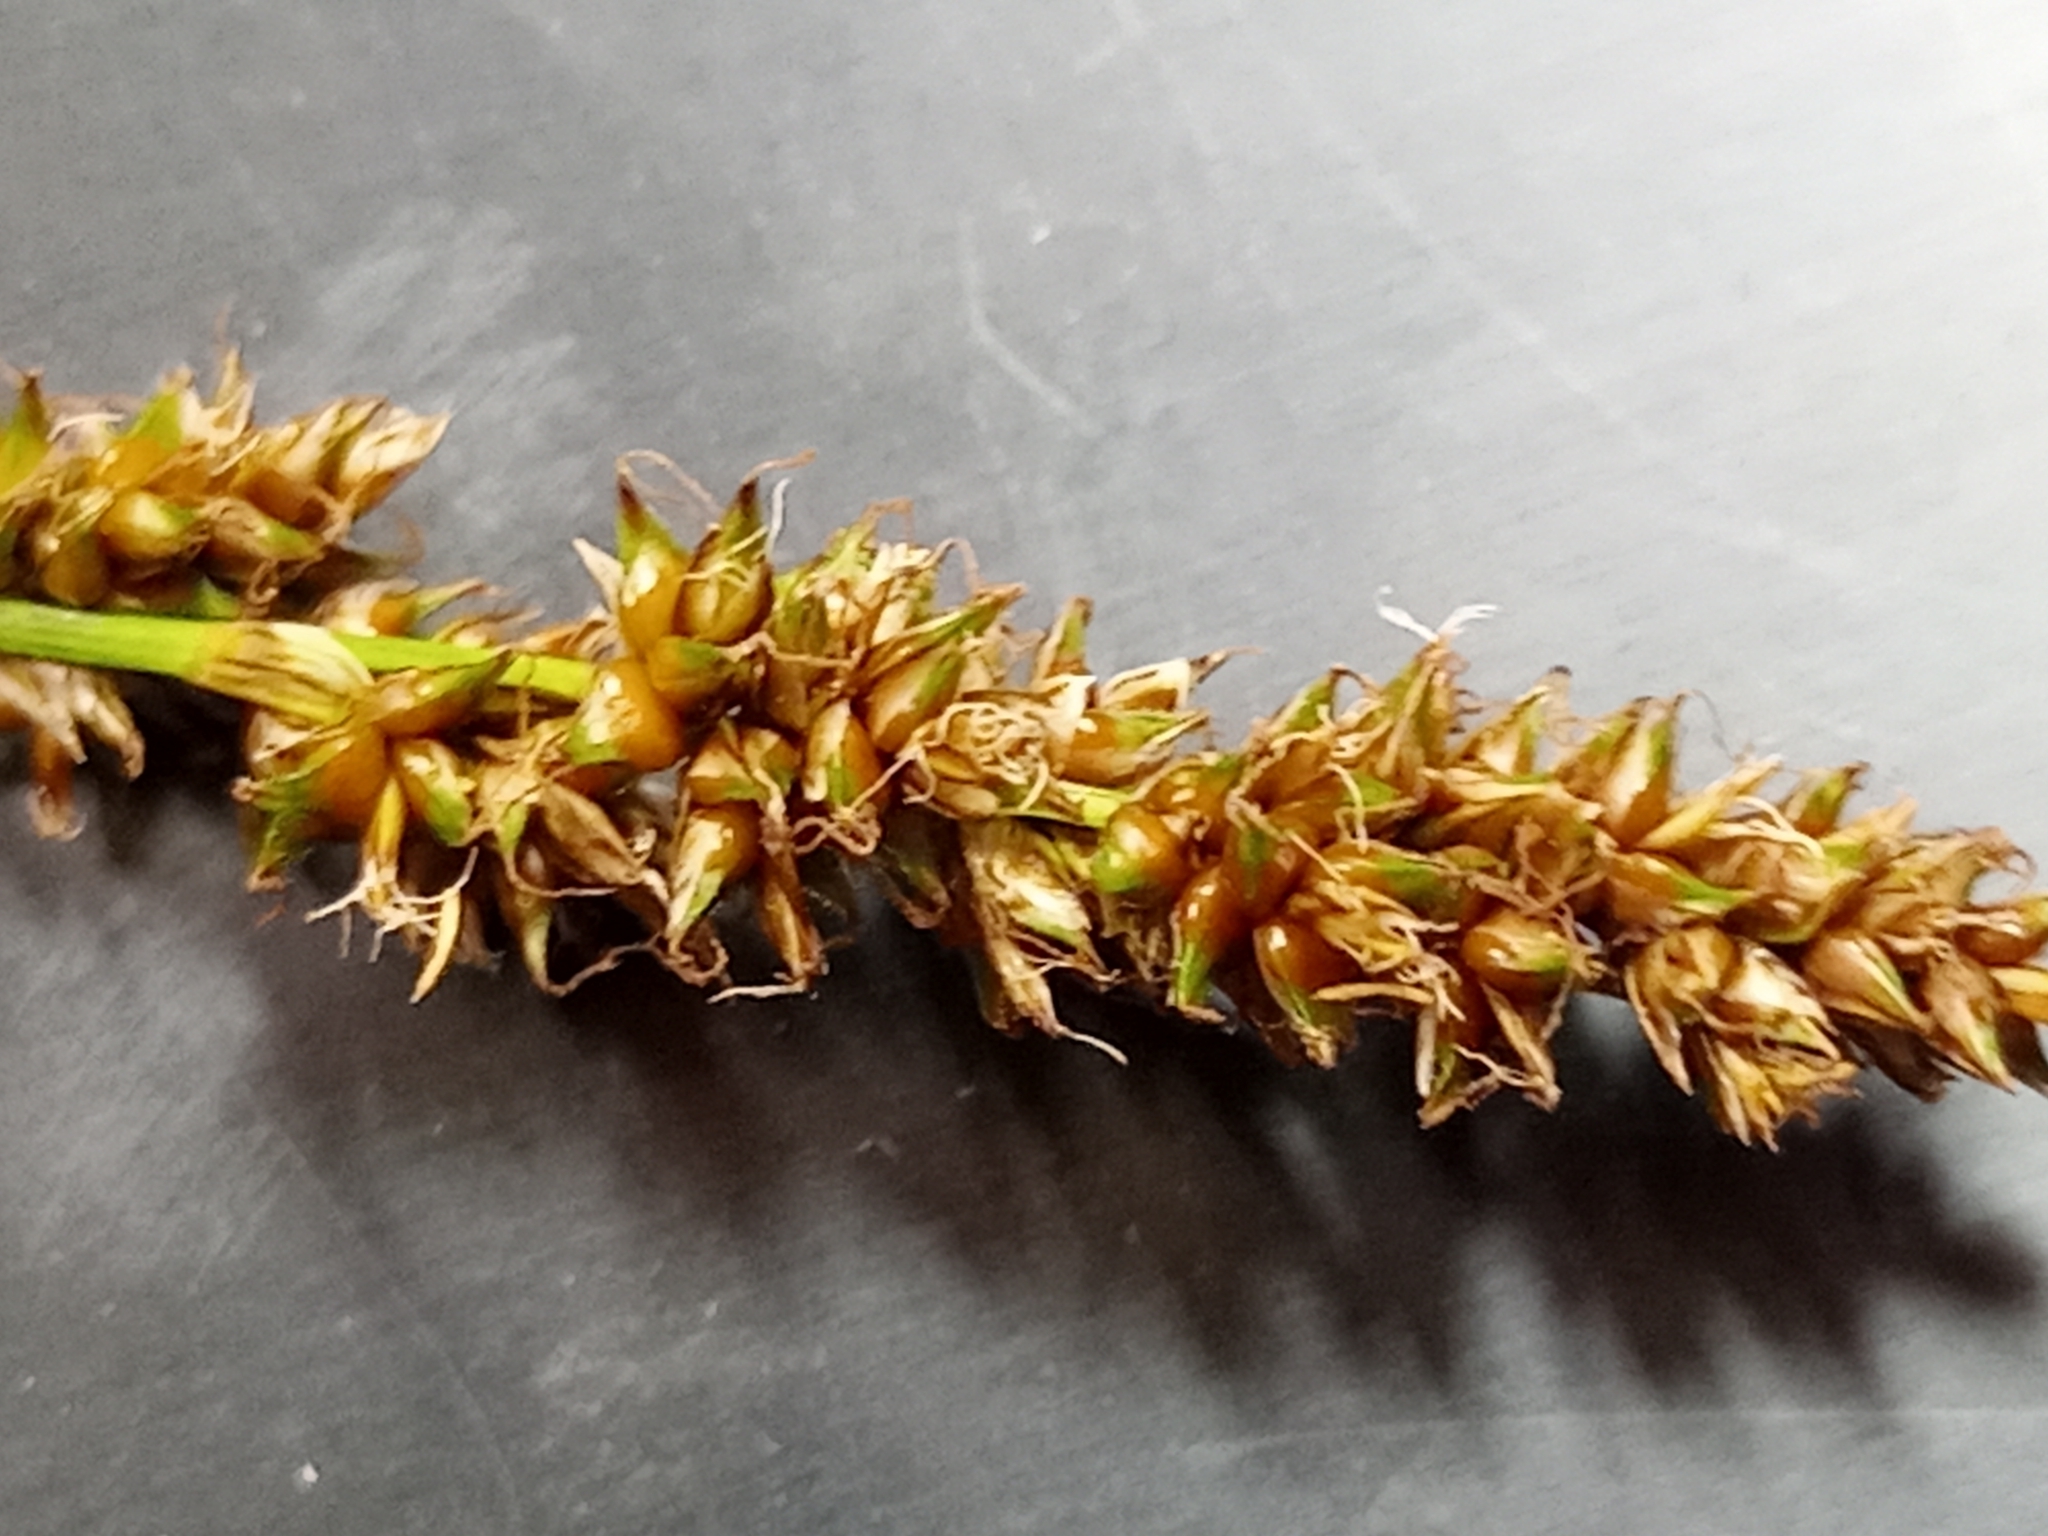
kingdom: Plantae
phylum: Tracheophyta
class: Liliopsida
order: Poales
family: Cyperaceae
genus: Carex
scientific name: Carex diandra
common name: Lesser tussock-sedge
